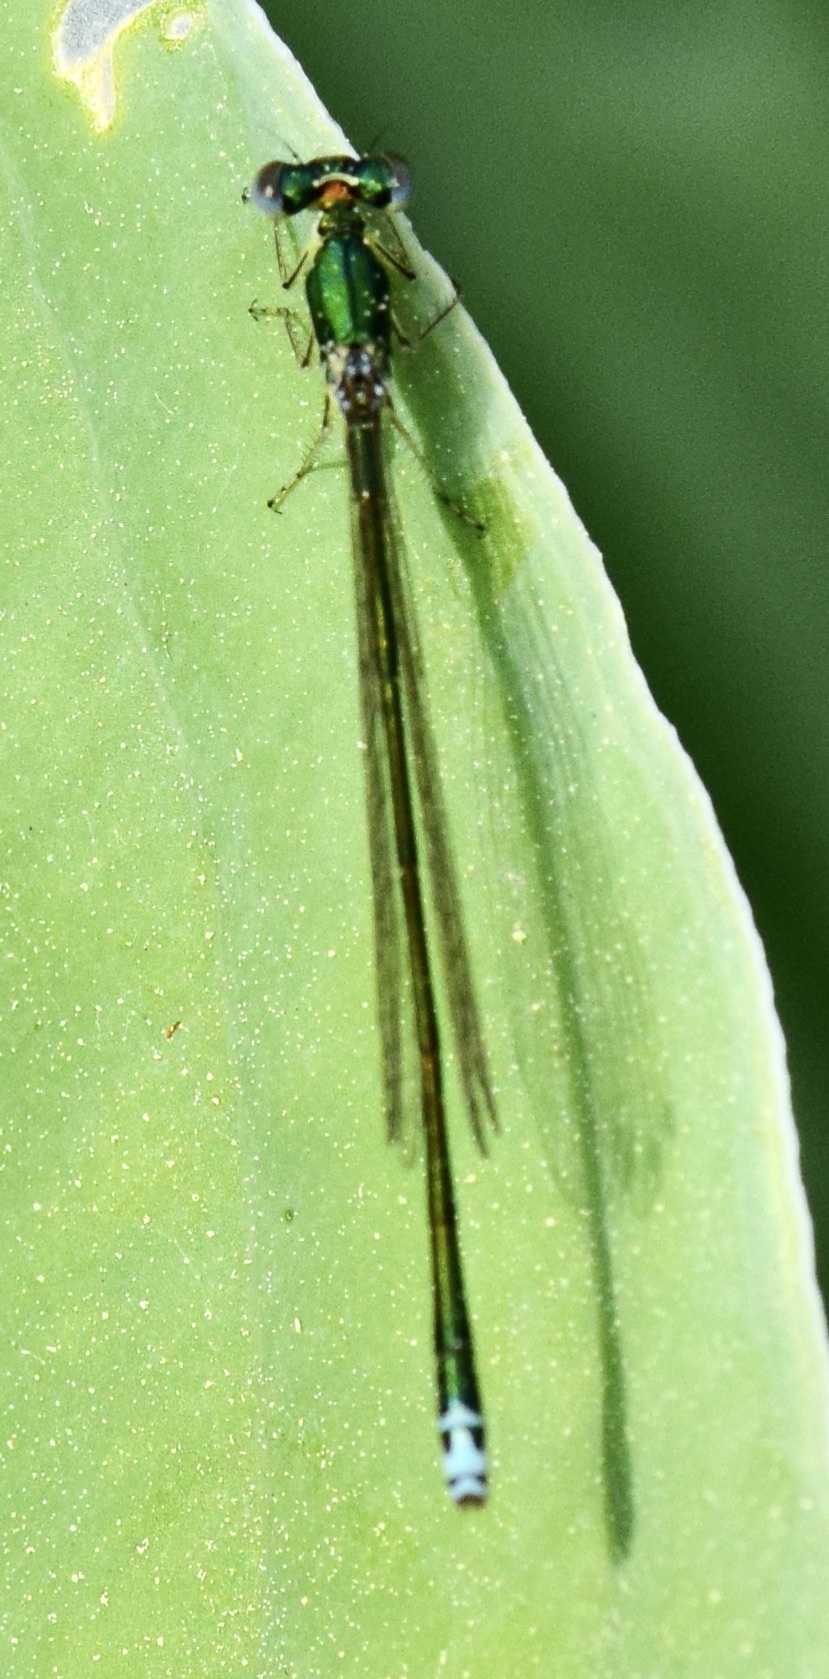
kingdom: Animalia
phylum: Arthropoda
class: Insecta
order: Odonata
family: Coenagrionidae
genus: Nehalennia
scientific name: Nehalennia irene
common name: Sedge sprite
